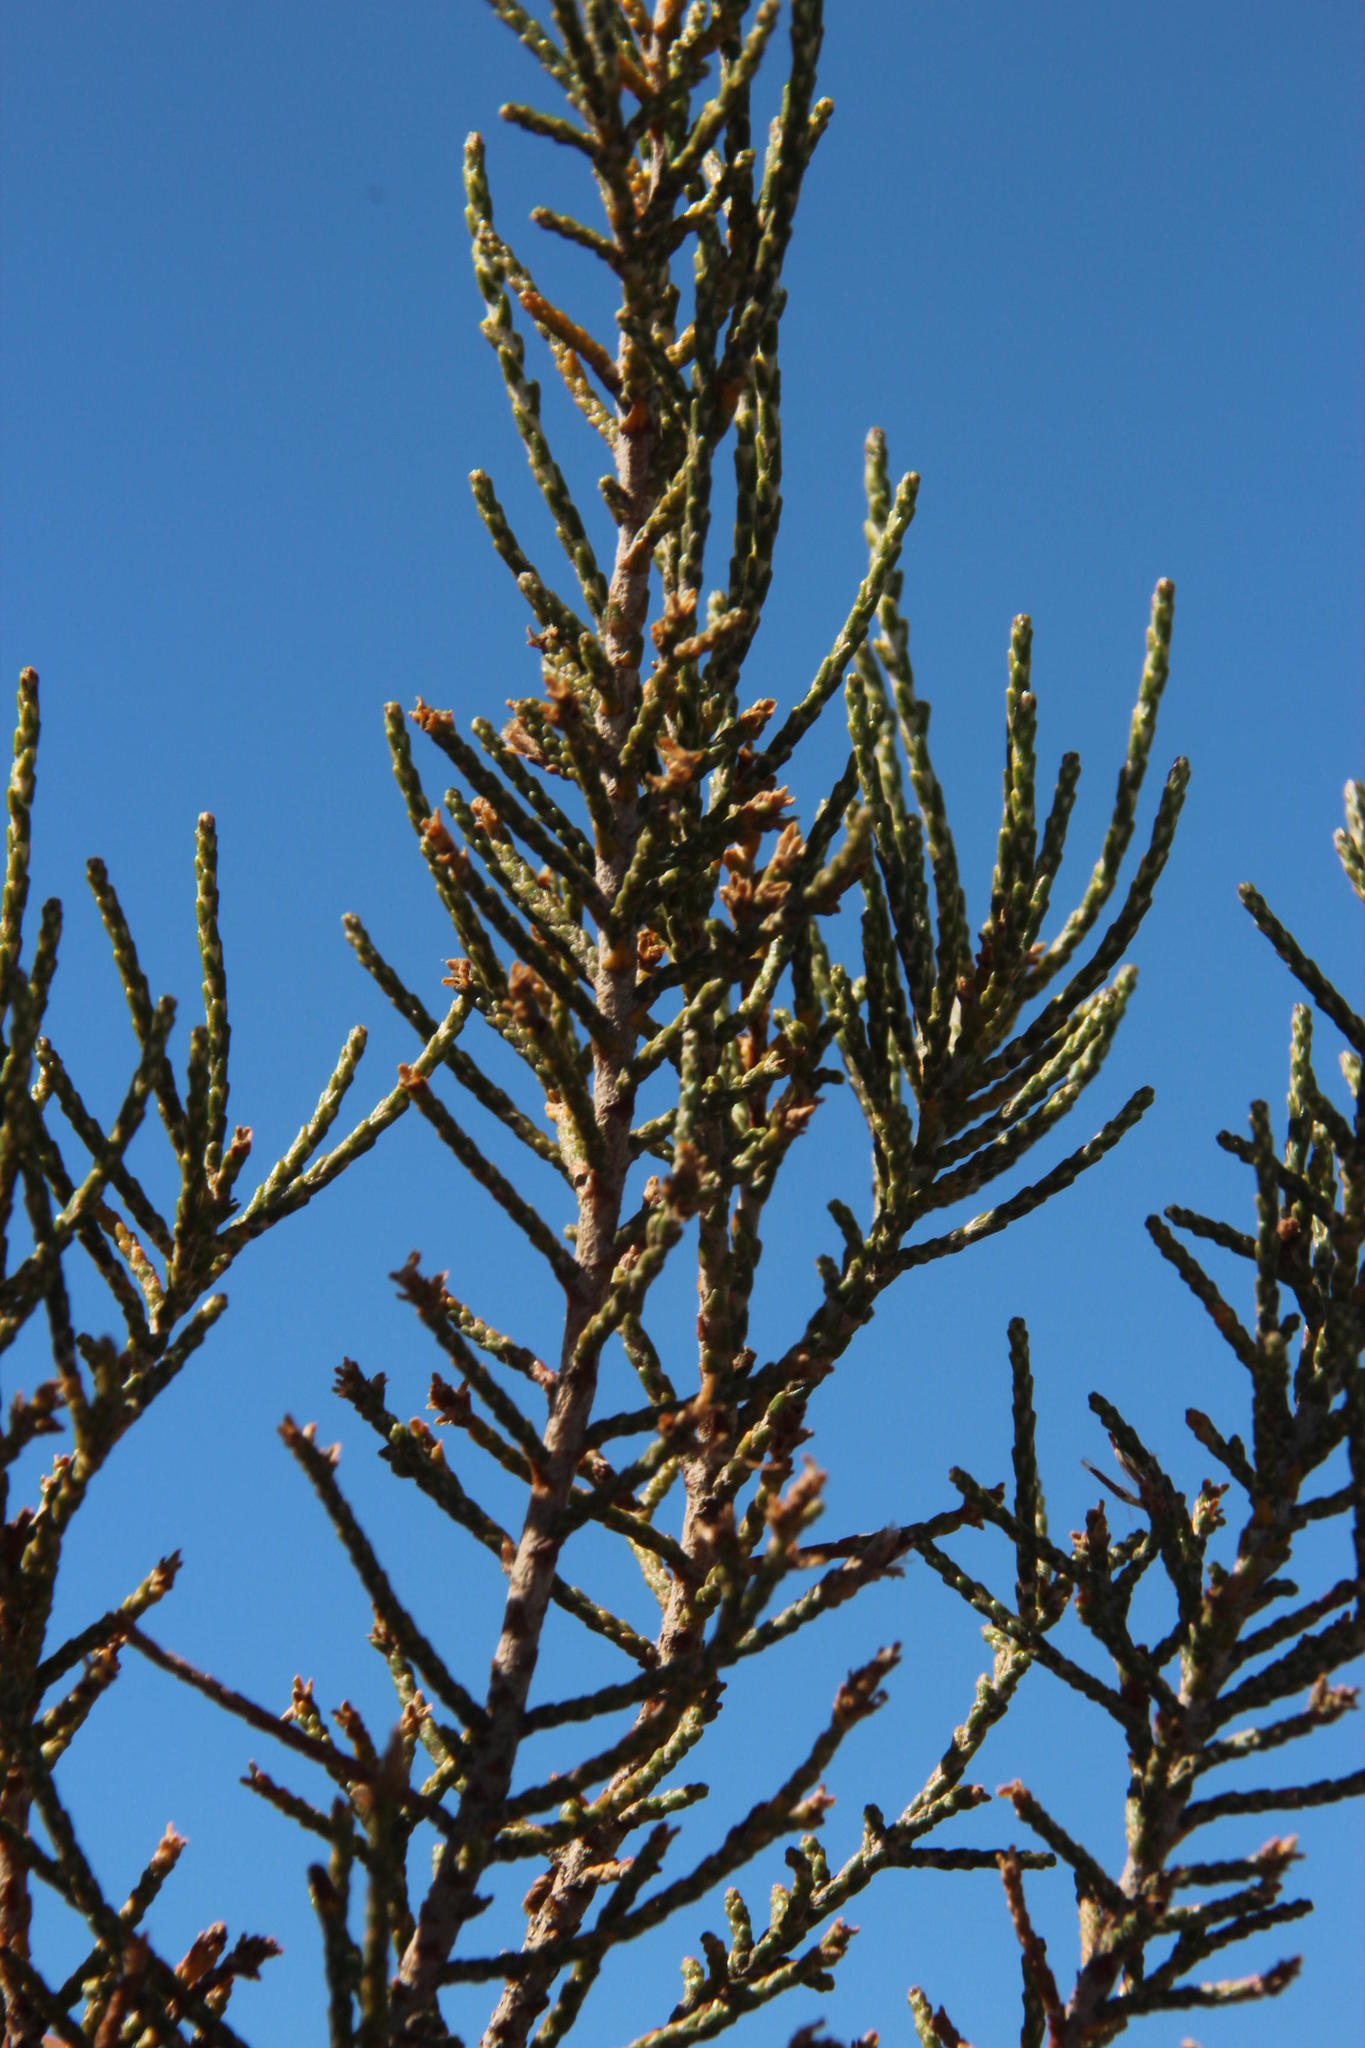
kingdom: Plantae
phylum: Tracheophyta
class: Magnoliopsida
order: Asterales
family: Asteraceae
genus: Dicerothamnus
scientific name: Dicerothamnus rhinocerotis
